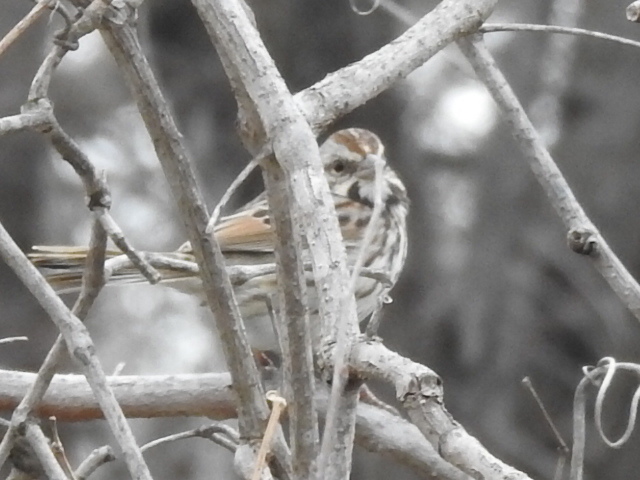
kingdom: Animalia
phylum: Chordata
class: Aves
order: Passeriformes
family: Passerellidae
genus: Melospiza
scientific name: Melospiza melodia
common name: Song sparrow
